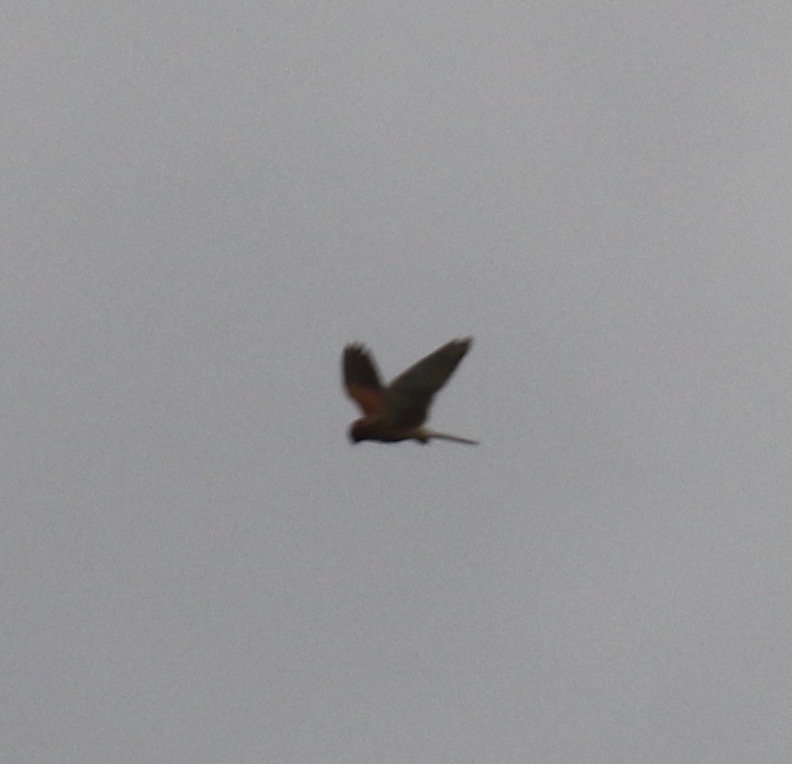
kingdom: Animalia
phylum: Chordata
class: Aves
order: Falconiformes
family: Falconidae
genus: Falco
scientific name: Falco tinnunculus
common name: Common kestrel
